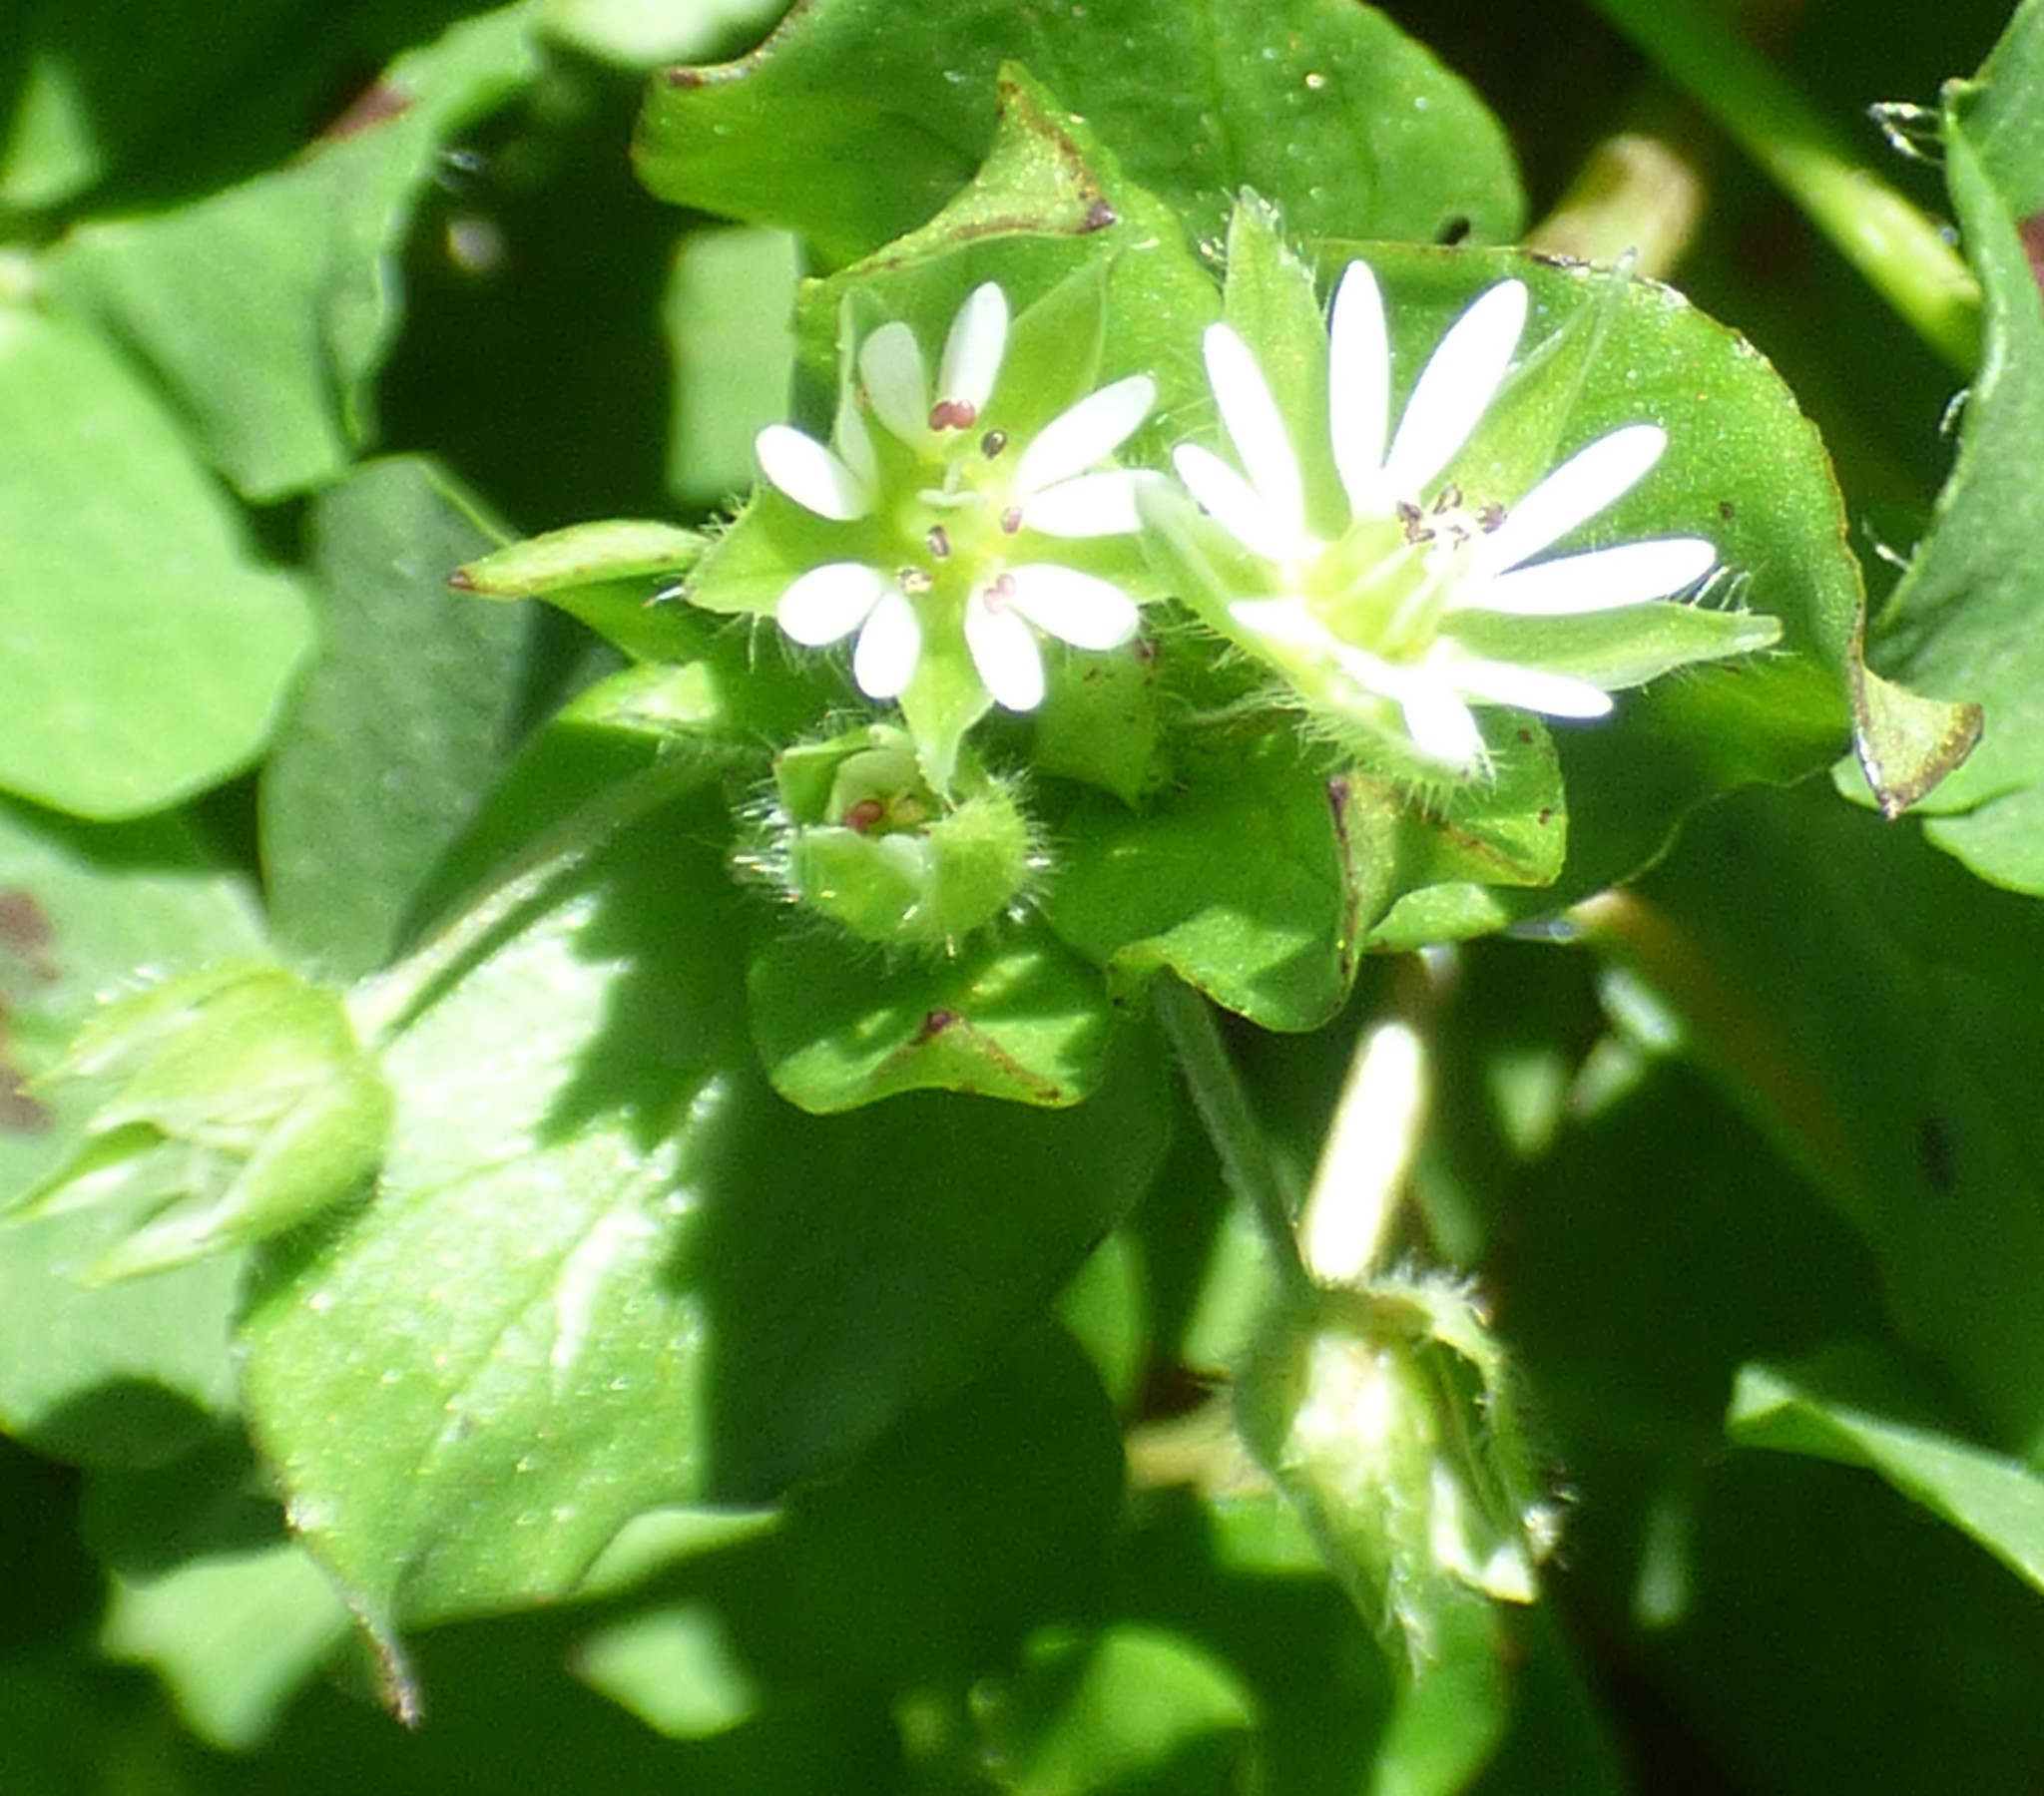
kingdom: Plantae
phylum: Tracheophyta
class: Magnoliopsida
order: Caryophyllales
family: Caryophyllaceae
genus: Stellaria
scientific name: Stellaria media
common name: Common chickweed
